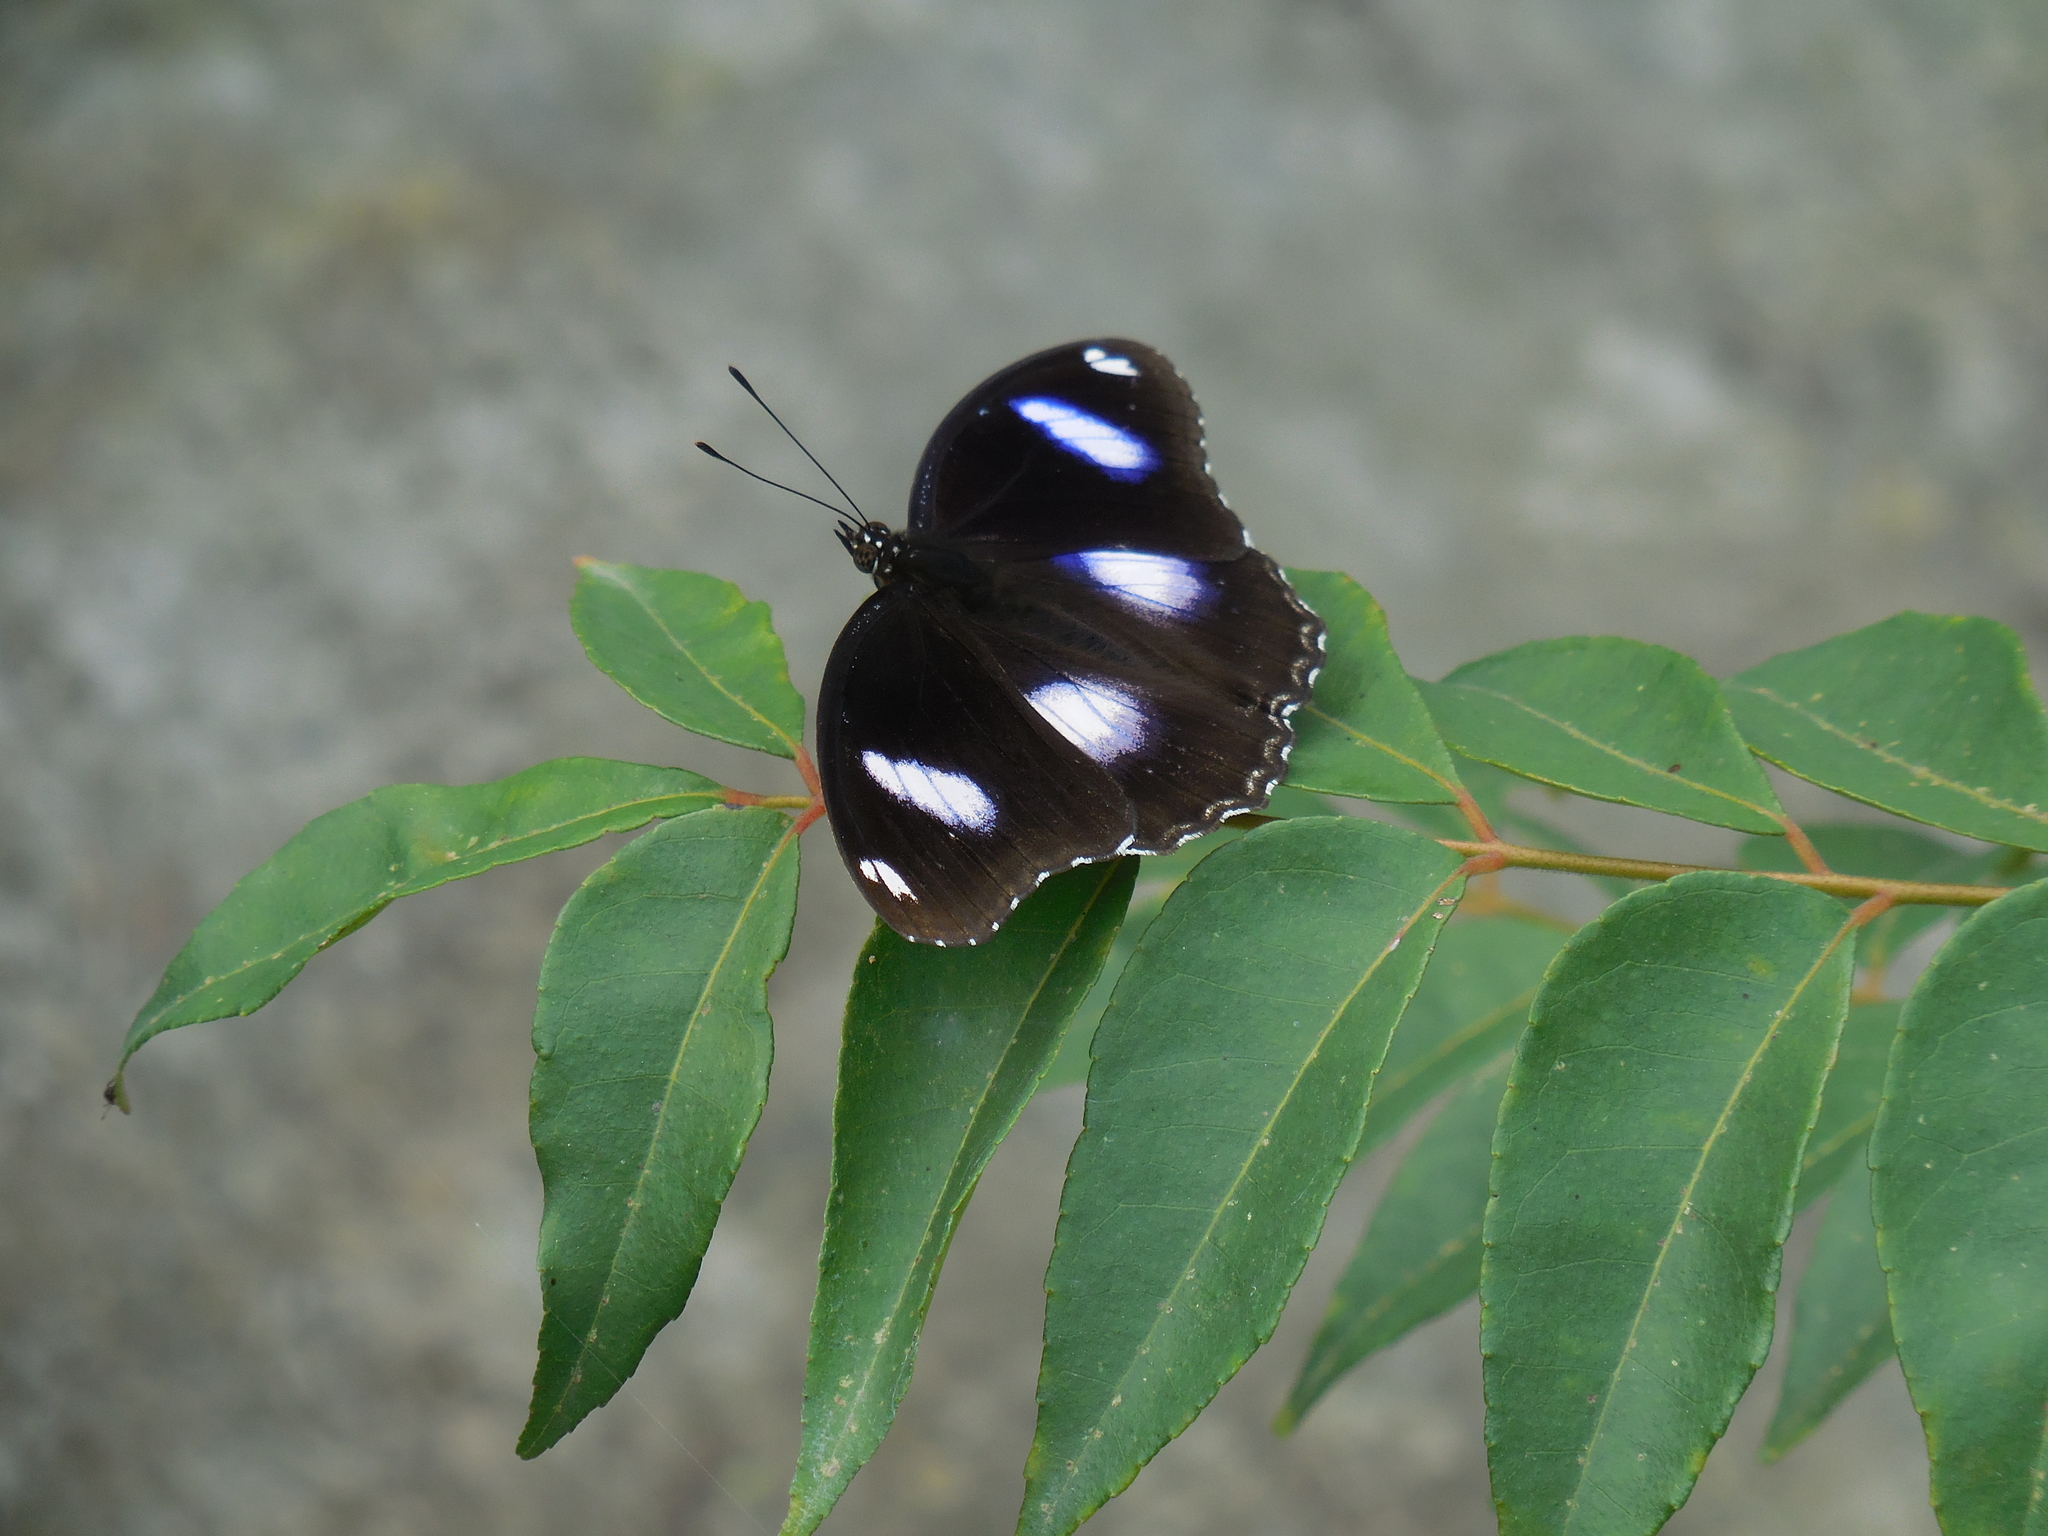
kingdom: Animalia
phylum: Arthropoda
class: Insecta
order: Lepidoptera
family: Nymphalidae
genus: Hypolimnas
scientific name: Hypolimnas bolina
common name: Great eggfly
